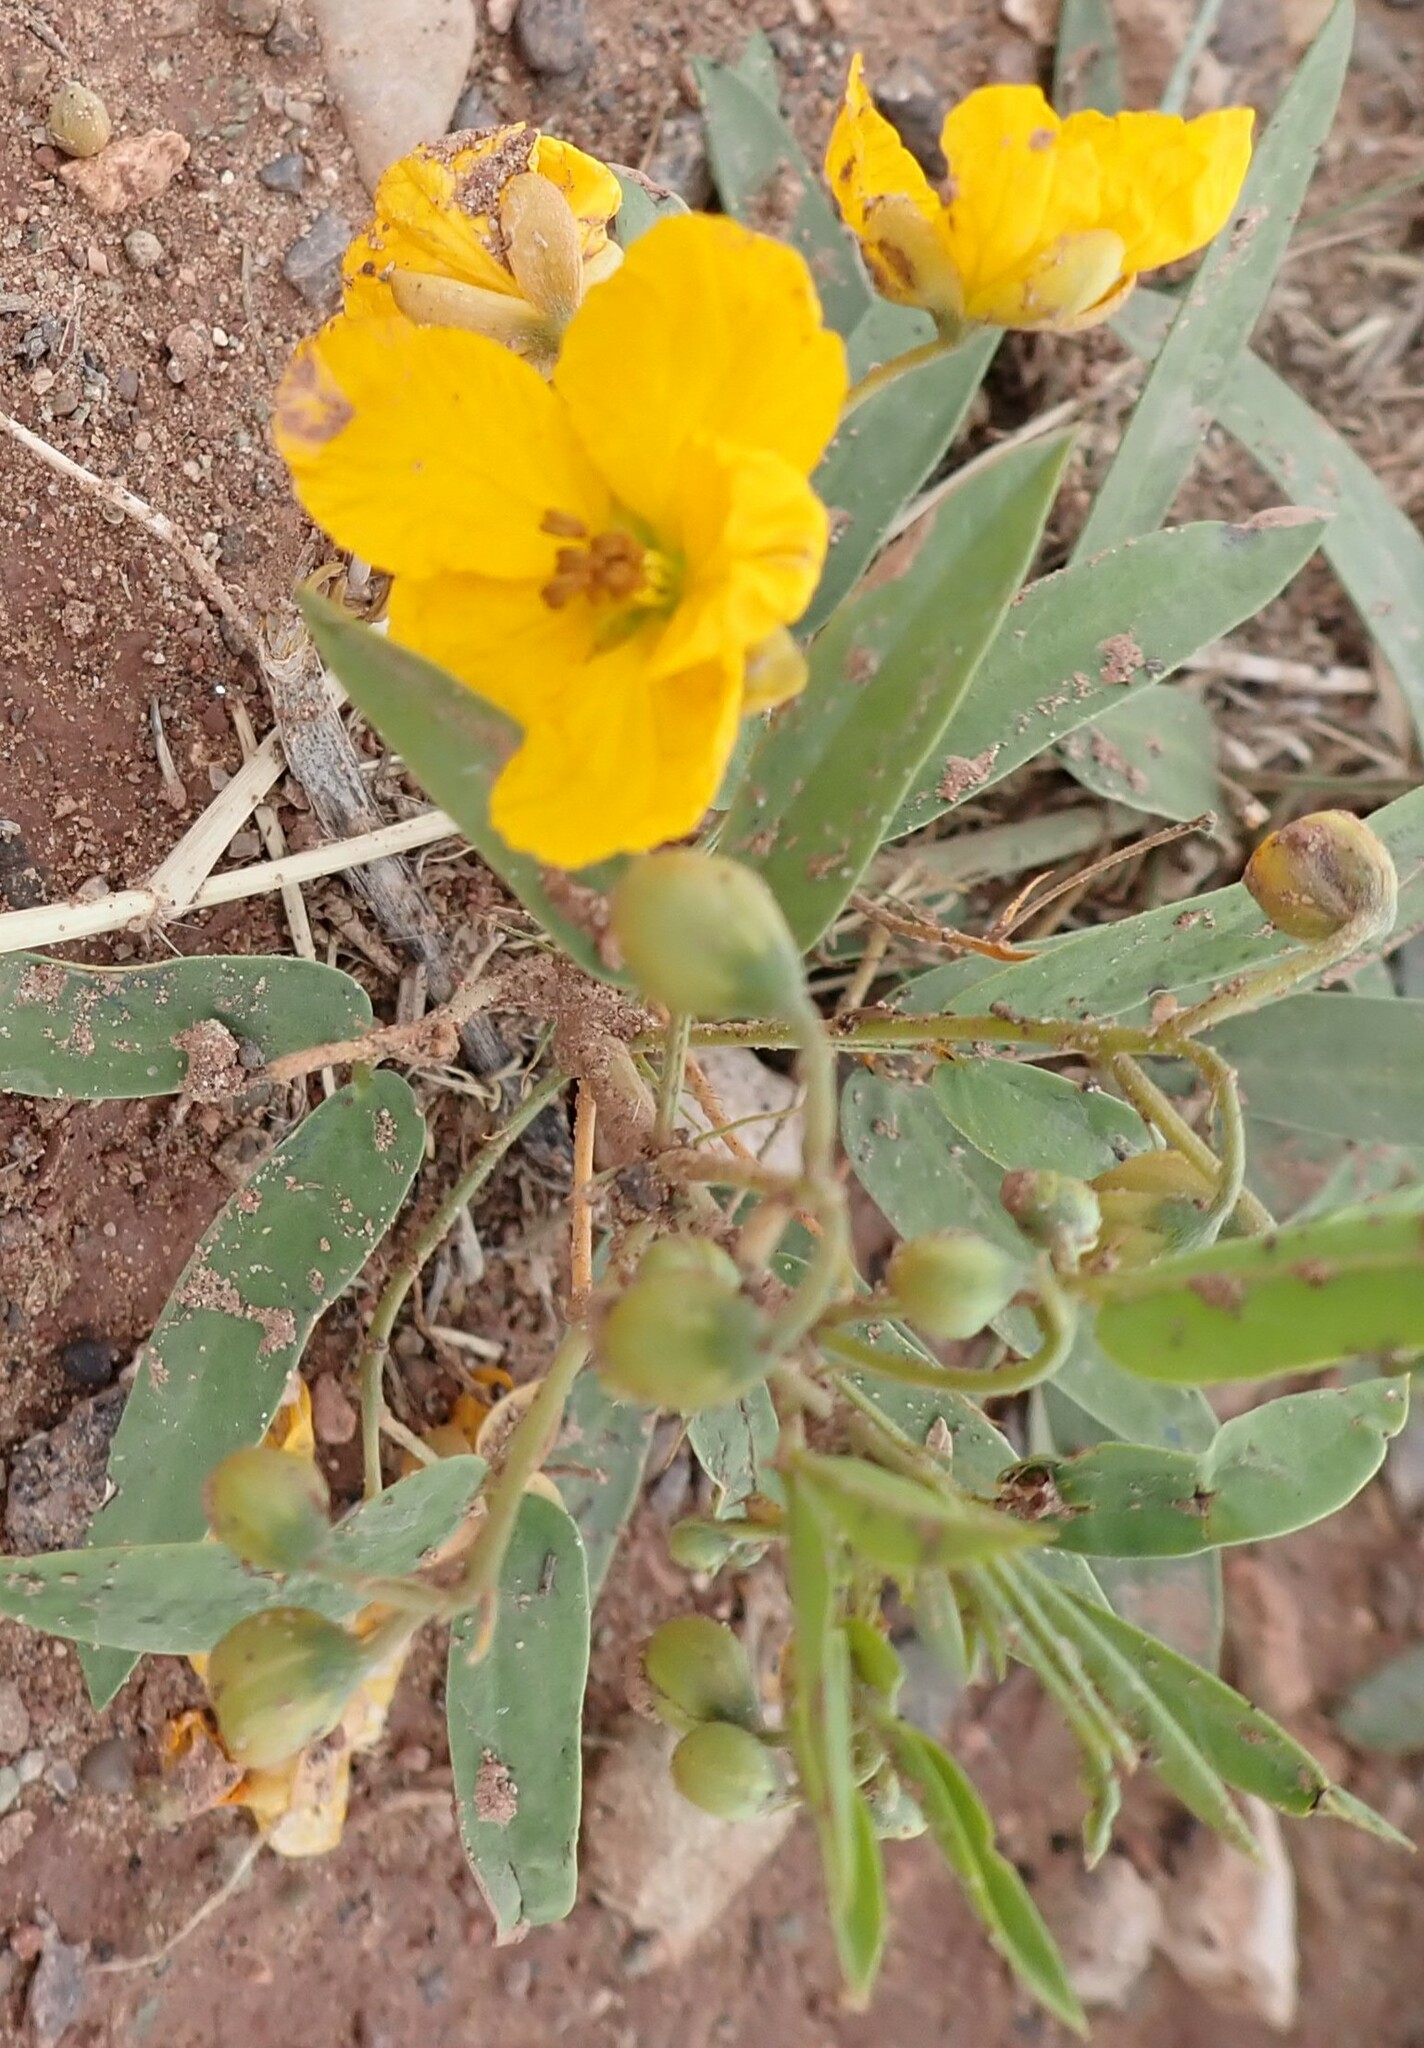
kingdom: Plantae
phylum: Tracheophyta
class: Magnoliopsida
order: Fabales
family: Fabaceae
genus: Senna
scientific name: Senna roemeriana
